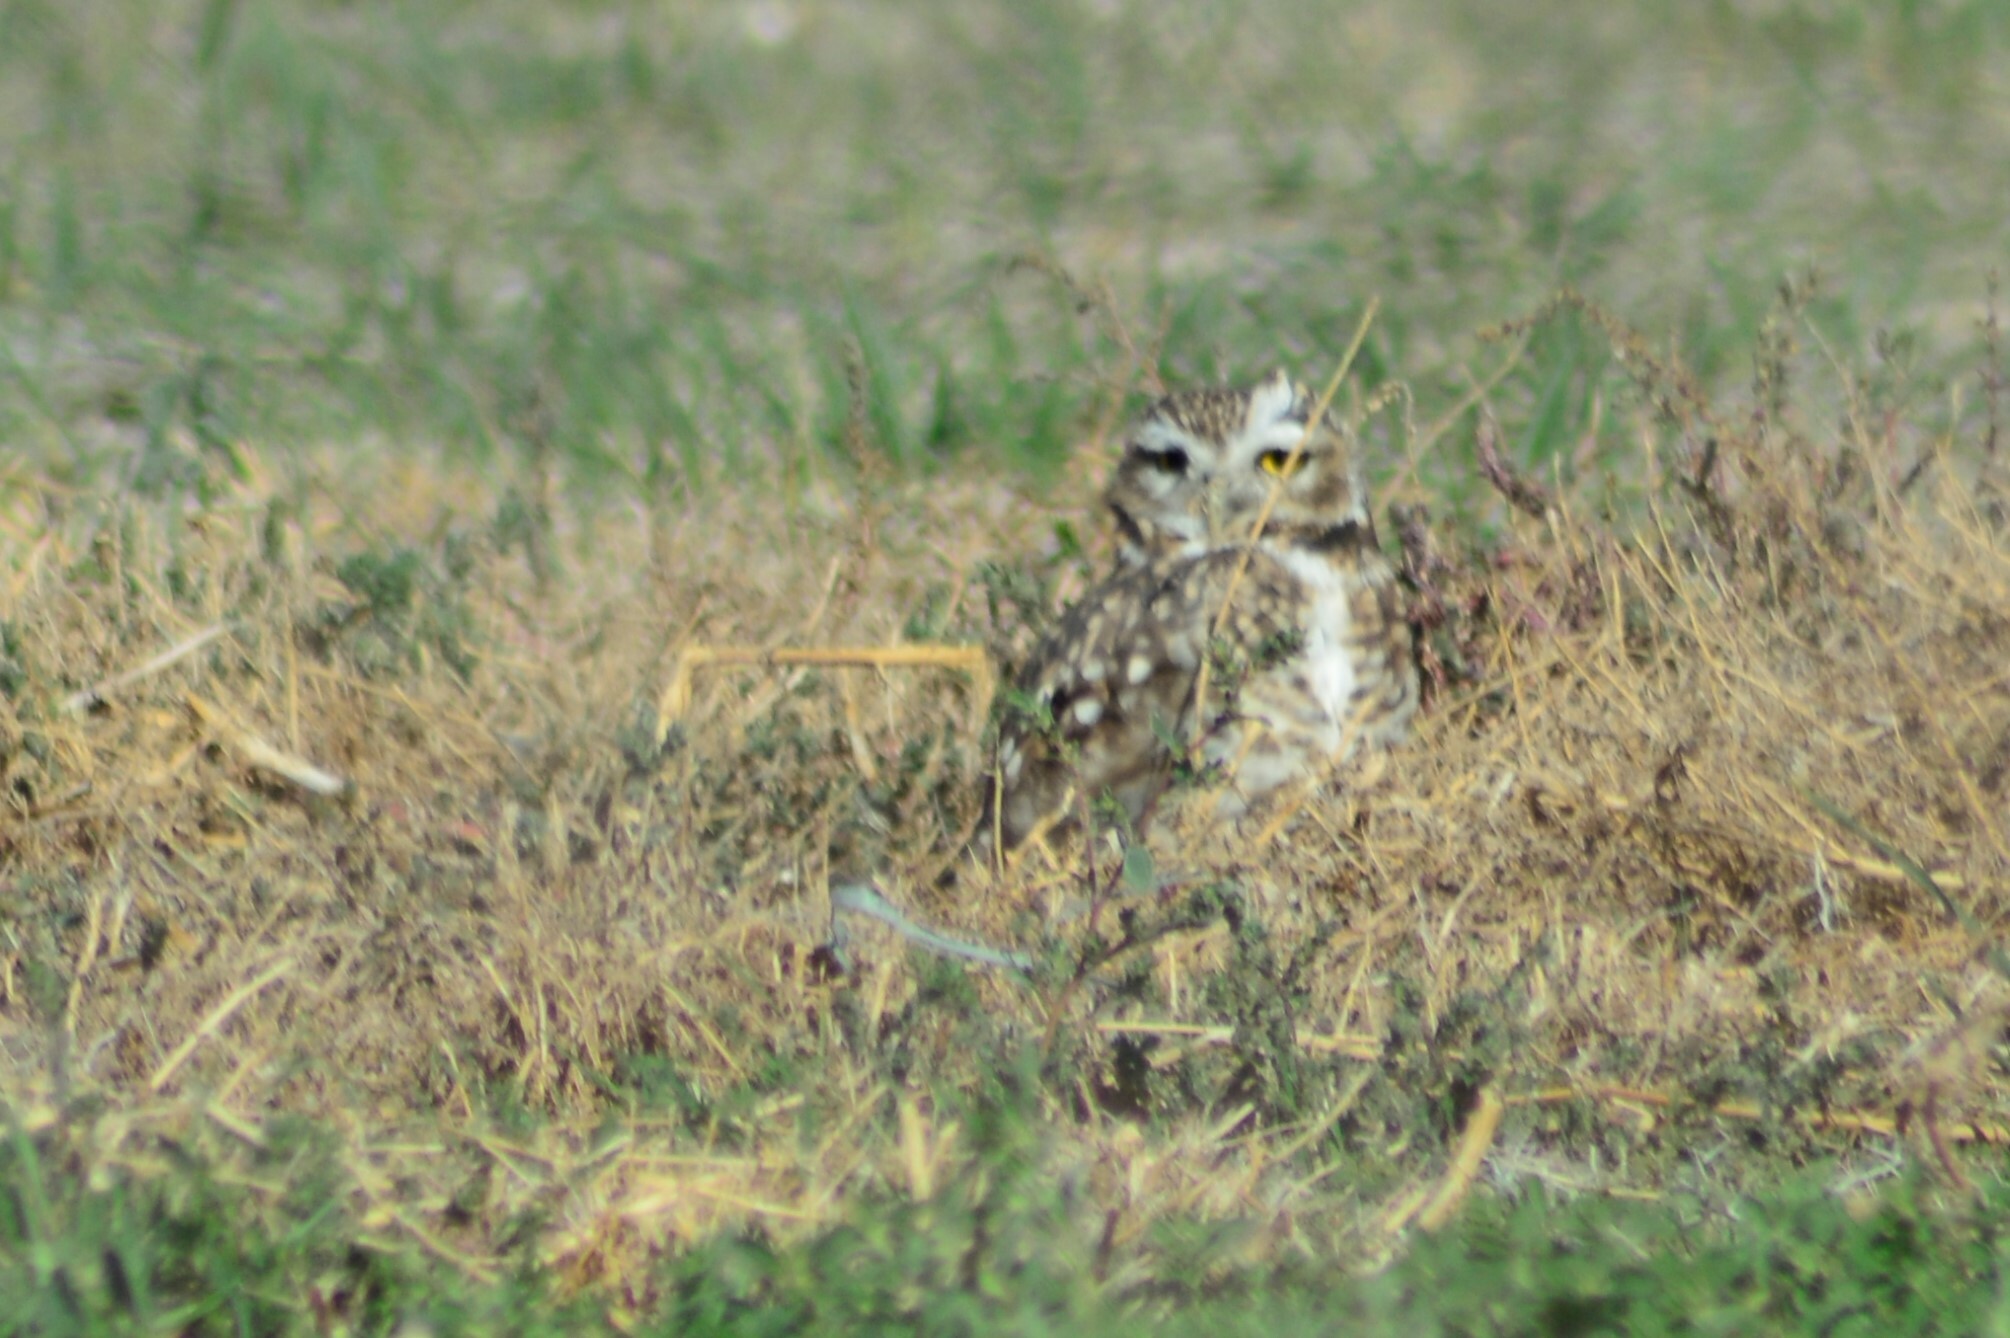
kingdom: Animalia
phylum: Chordata
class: Aves
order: Strigiformes
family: Strigidae
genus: Athene
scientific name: Athene cunicularia
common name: Burrowing owl
